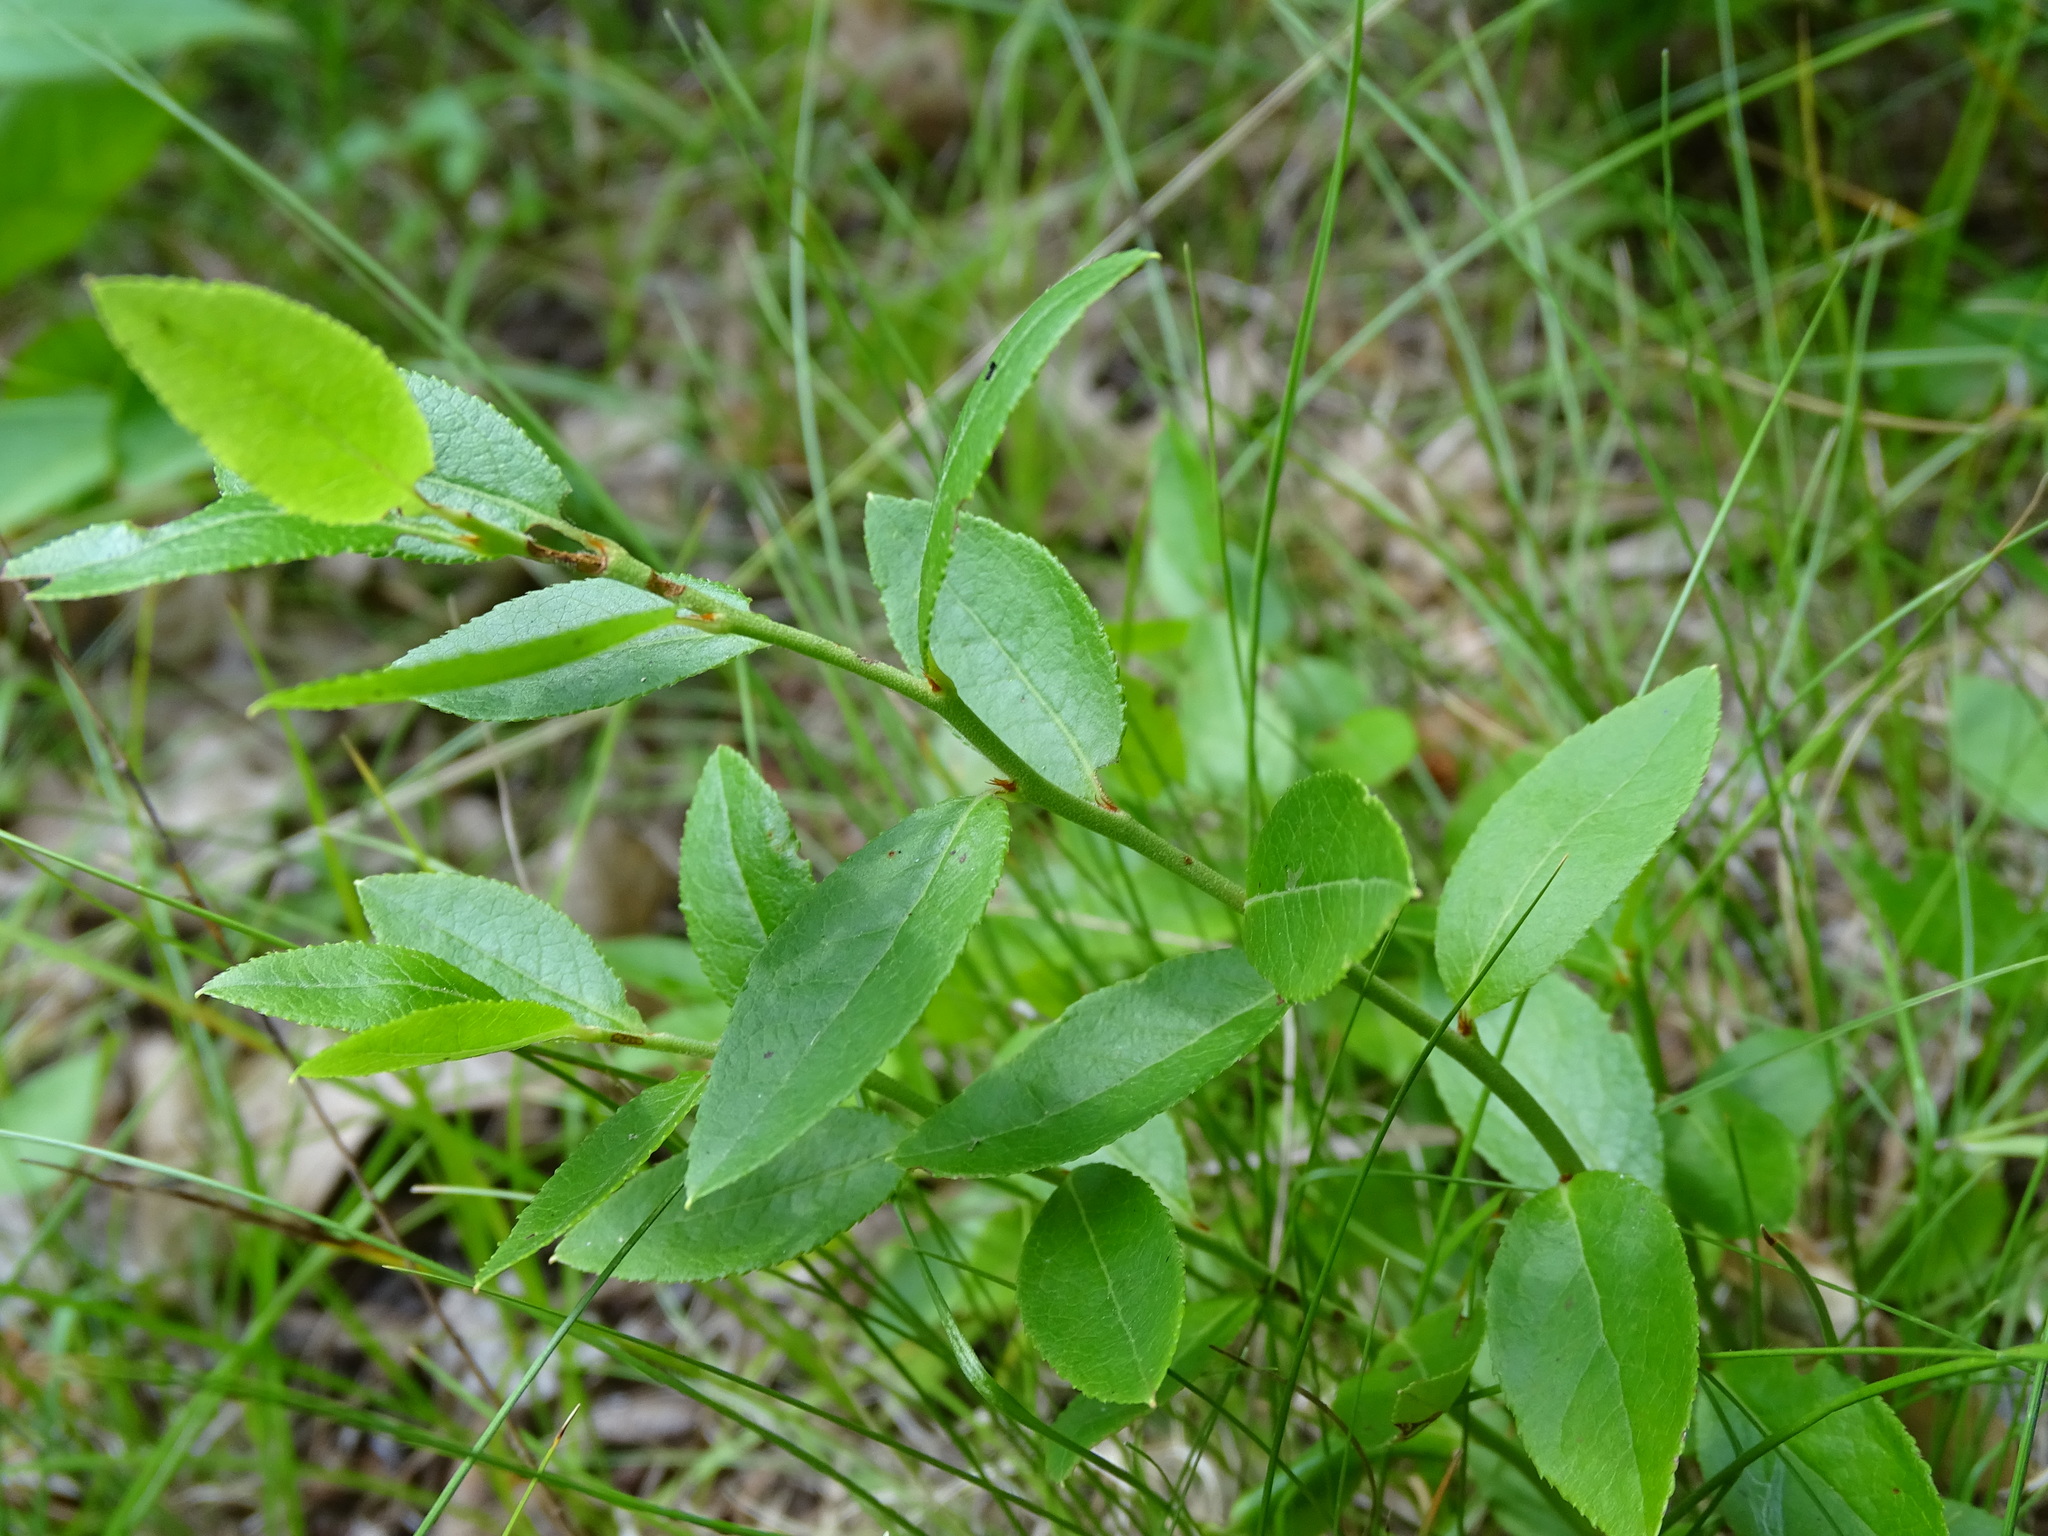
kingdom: Plantae
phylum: Tracheophyta
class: Magnoliopsida
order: Ericales
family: Ericaceae
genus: Vaccinium
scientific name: Vaccinium angustifolium
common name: Early lowbush blueberry
